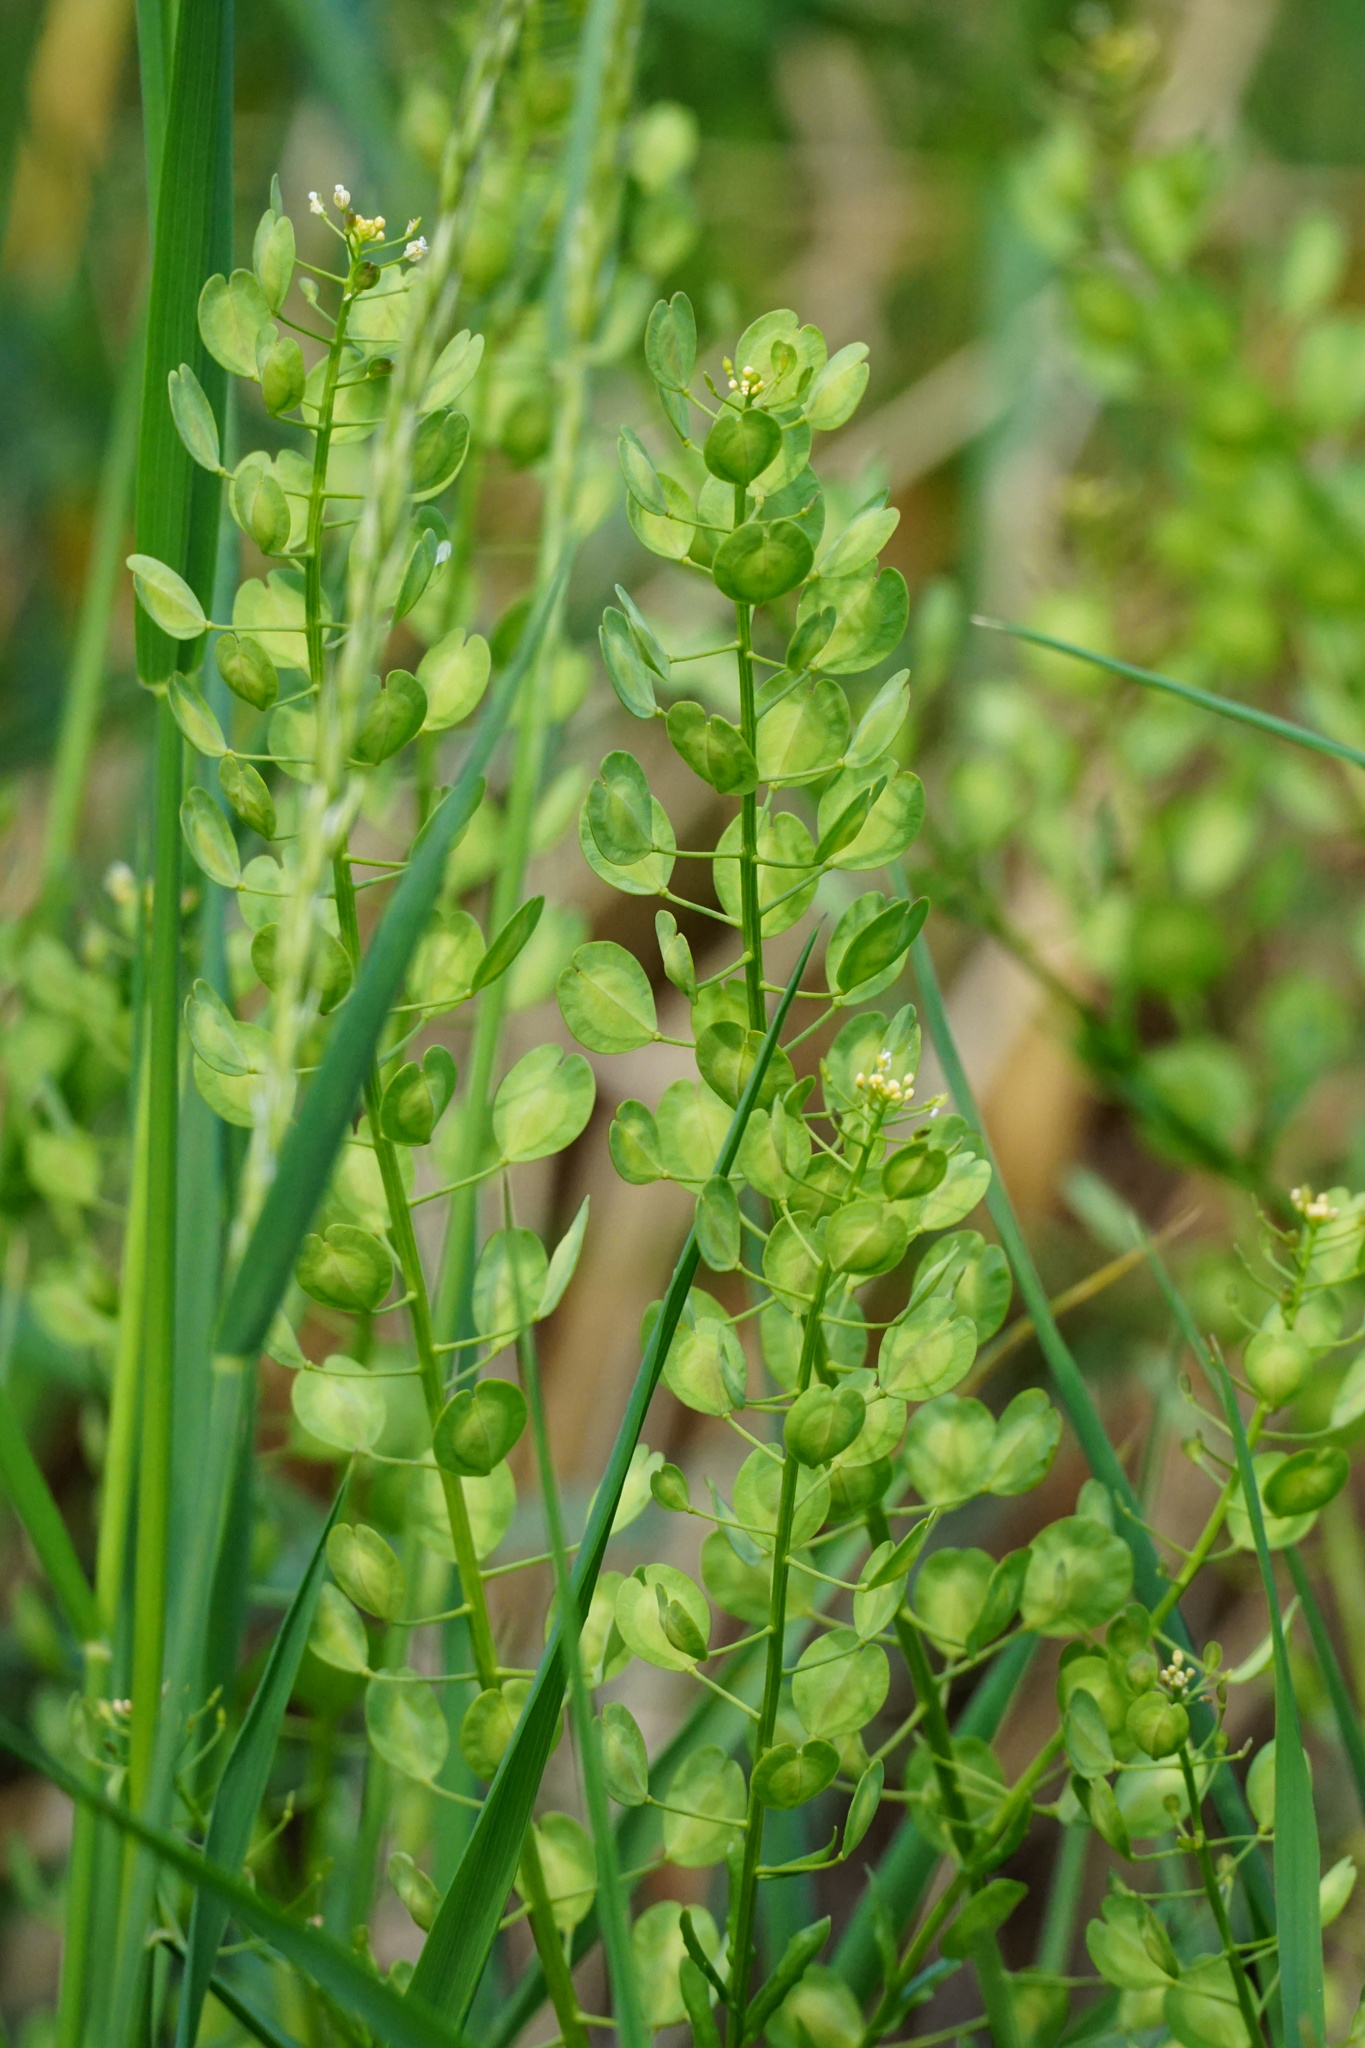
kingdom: Plantae
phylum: Tracheophyta
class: Magnoliopsida
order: Brassicales
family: Brassicaceae
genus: Thlaspi
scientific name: Thlaspi arvense
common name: Field pennycress
